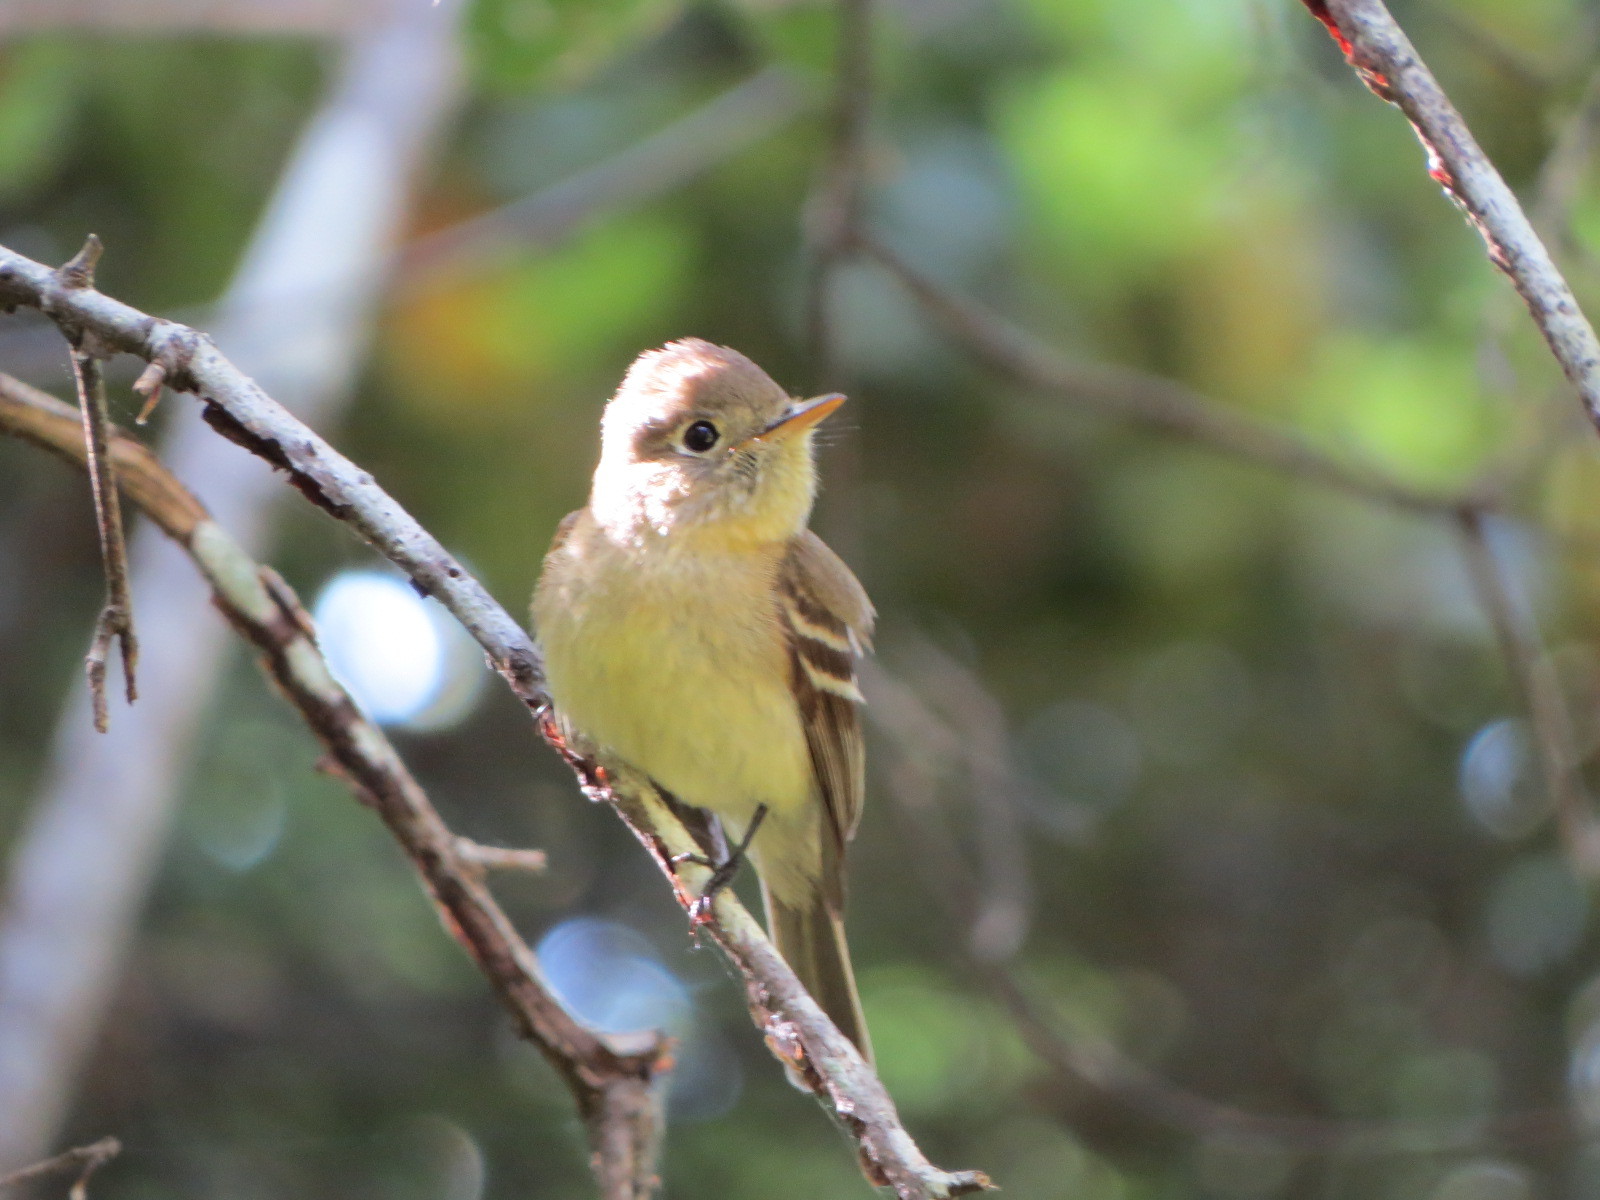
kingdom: Animalia
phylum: Chordata
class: Aves
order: Passeriformes
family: Tyrannidae
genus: Empidonax
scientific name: Empidonax difficilis
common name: Pacific-slope flycatcher
